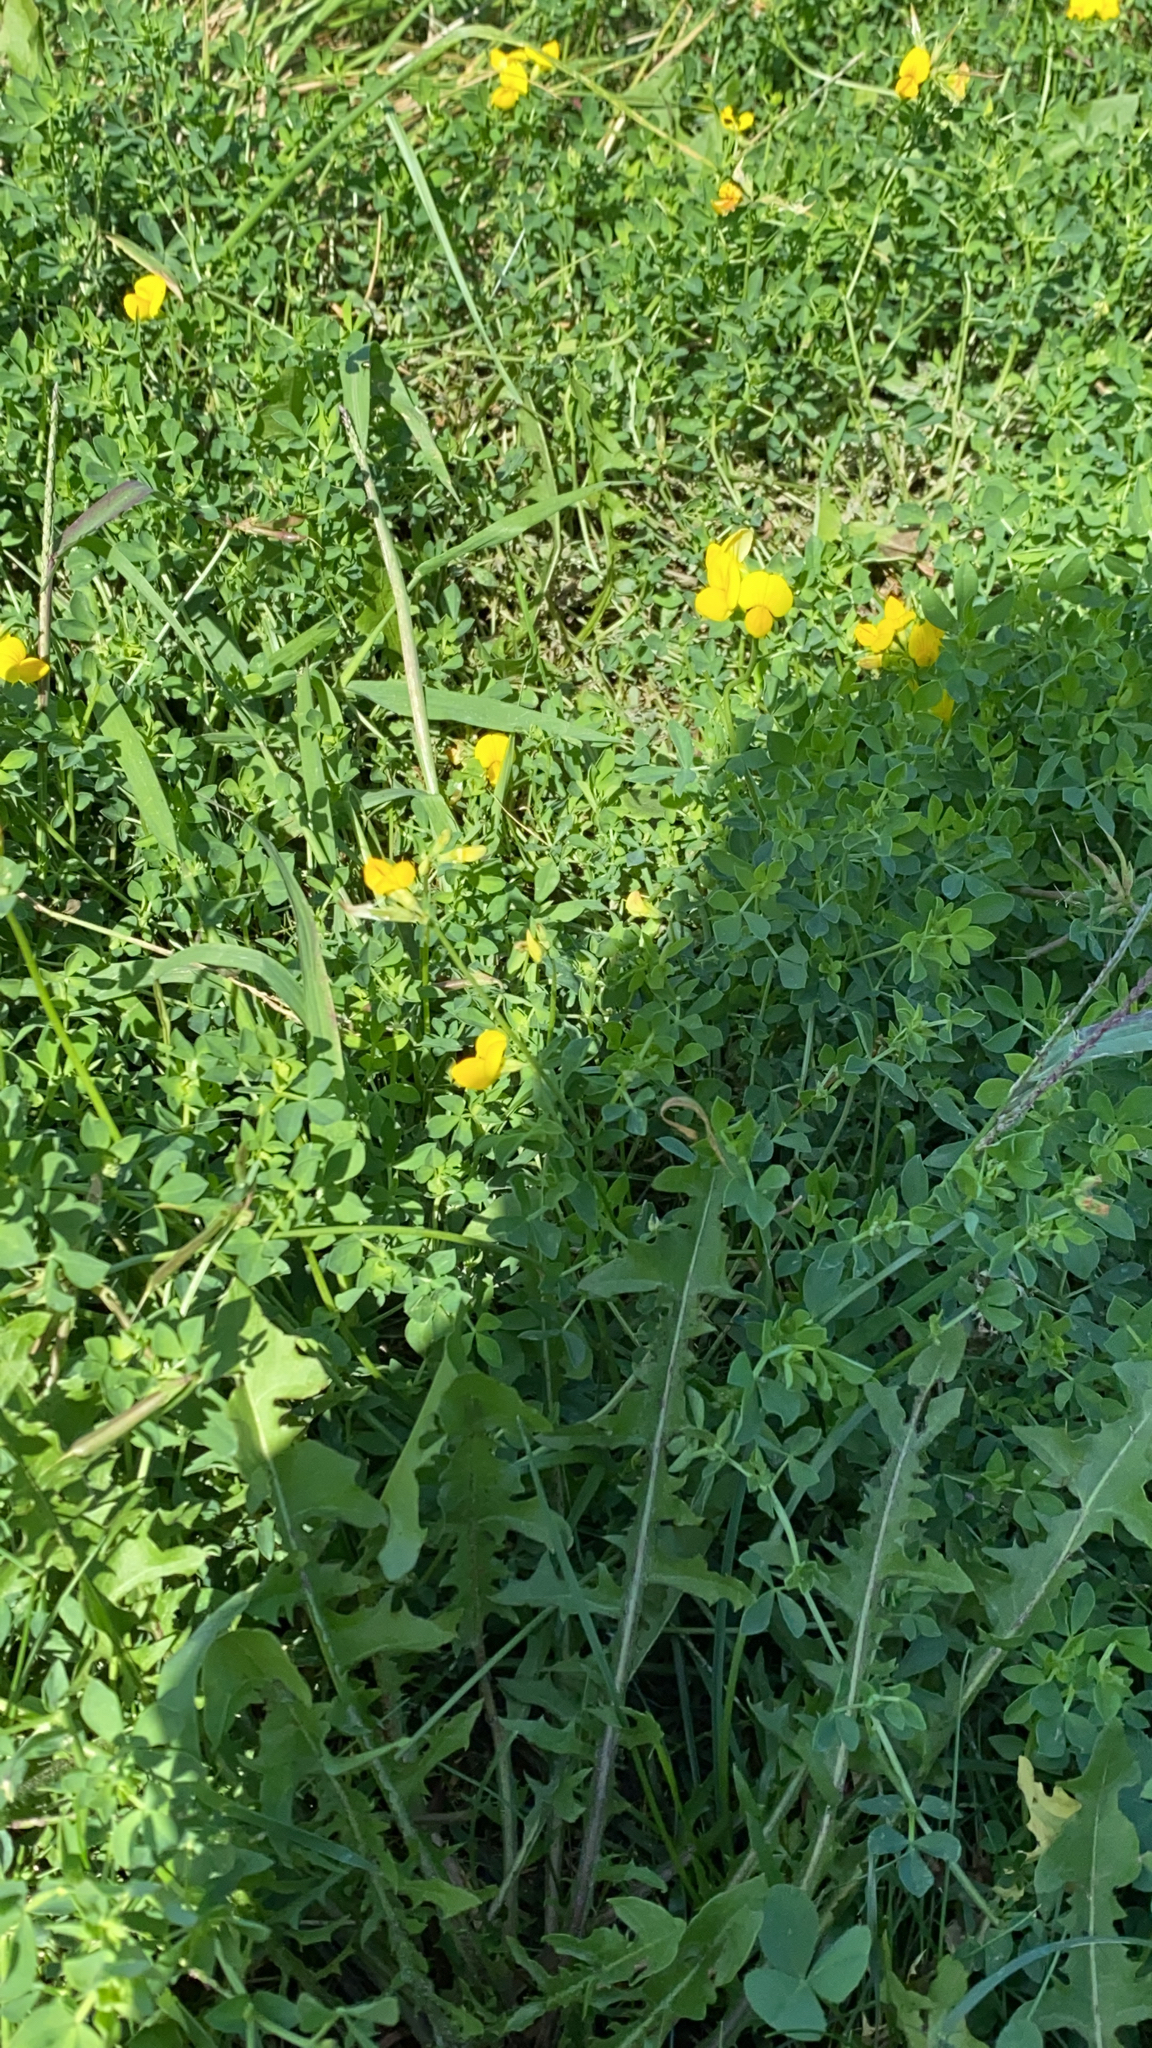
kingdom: Plantae
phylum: Tracheophyta
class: Magnoliopsida
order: Fabales
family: Fabaceae
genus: Lotus
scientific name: Lotus corniculatus
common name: Common bird's-foot-trefoil
